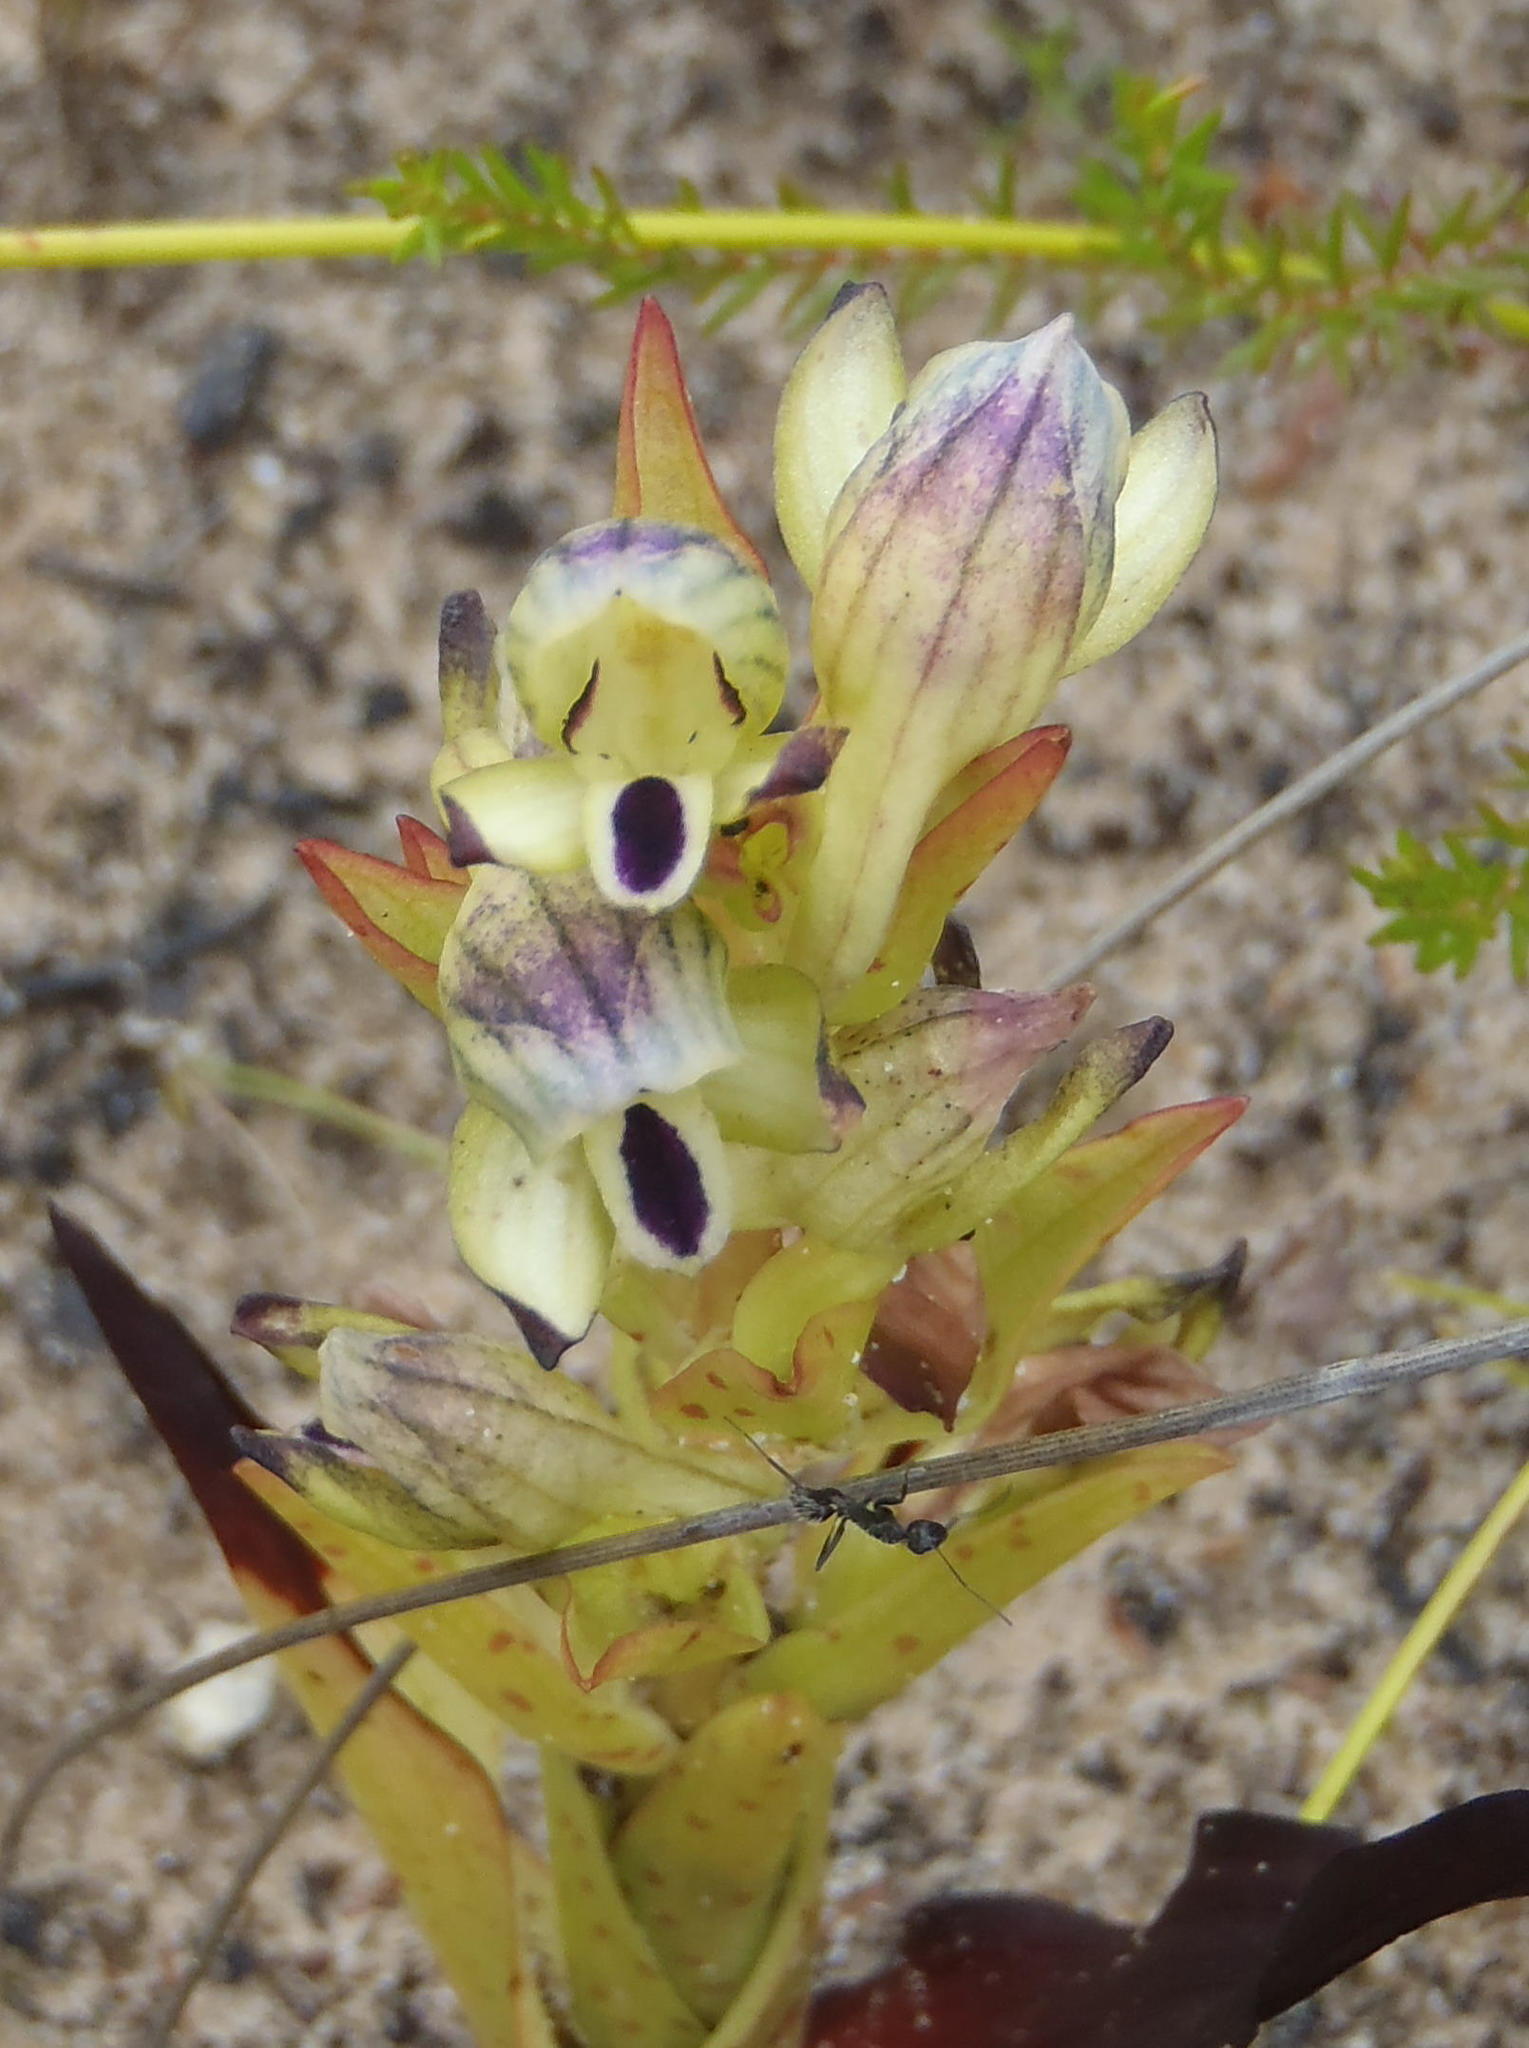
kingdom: Plantae
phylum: Tracheophyta
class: Liliopsida
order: Asparagales
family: Orchidaceae
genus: Disa
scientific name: Disa hallackii
